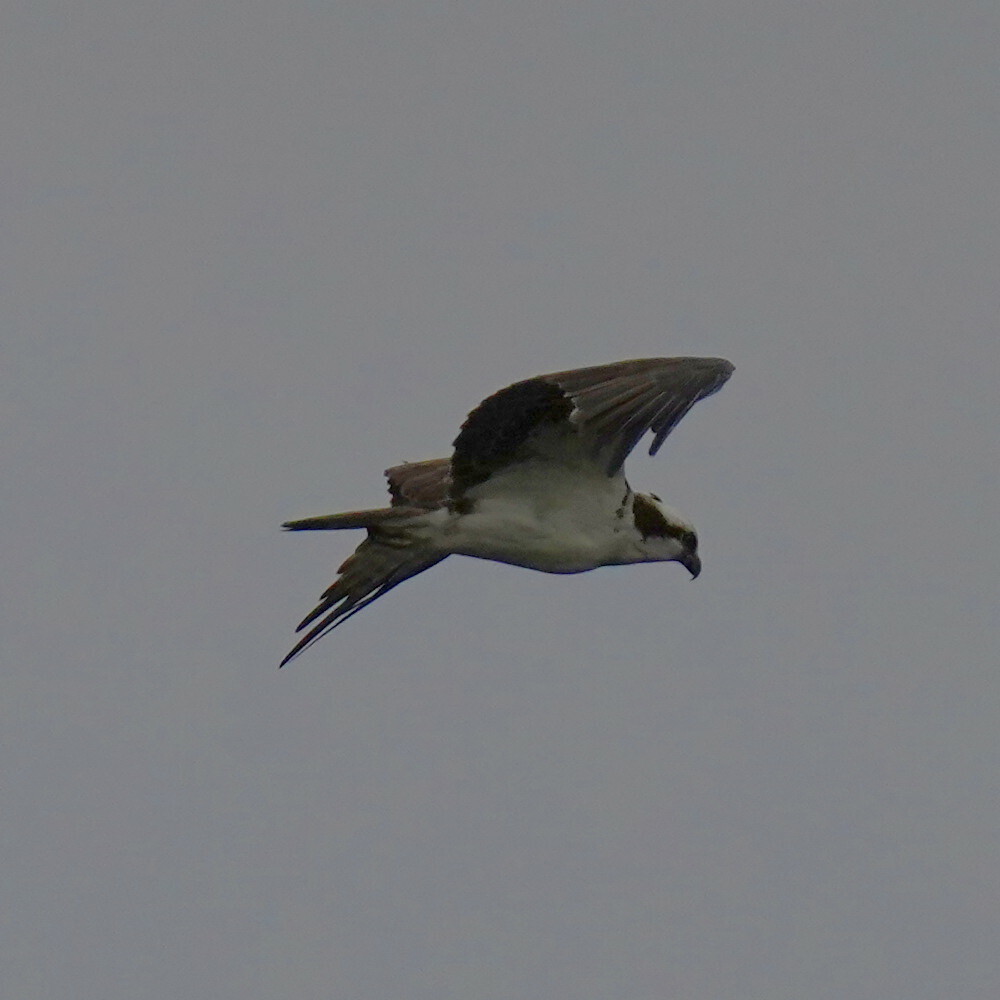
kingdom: Animalia
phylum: Chordata
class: Aves
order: Accipitriformes
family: Pandionidae
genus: Pandion
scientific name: Pandion haliaetus
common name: Osprey
